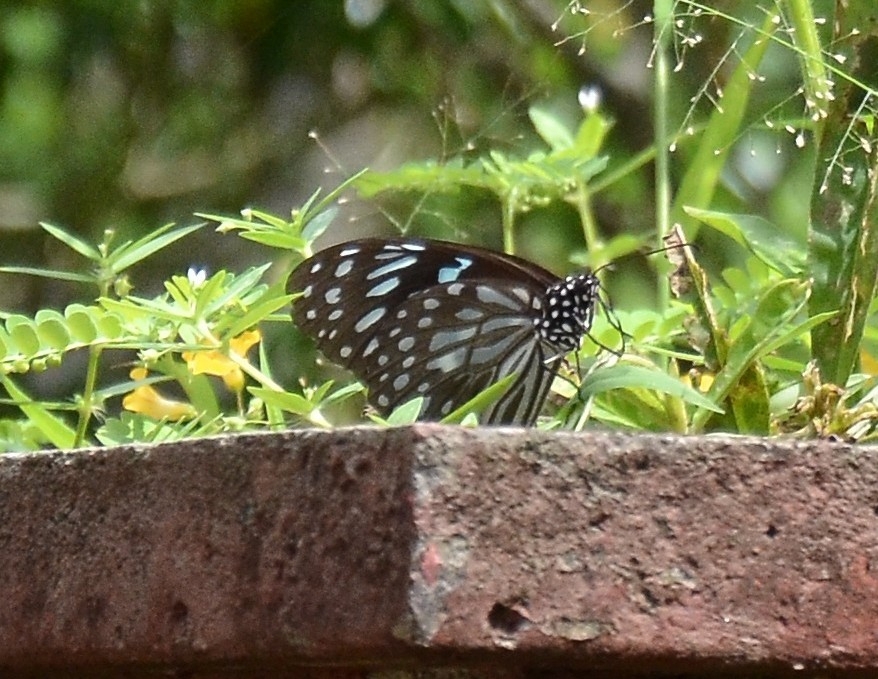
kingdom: Animalia
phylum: Arthropoda
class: Insecta
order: Lepidoptera
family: Nymphalidae
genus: Tirumala
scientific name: Tirumala septentrionis
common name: Dark blue tiger butterfly
